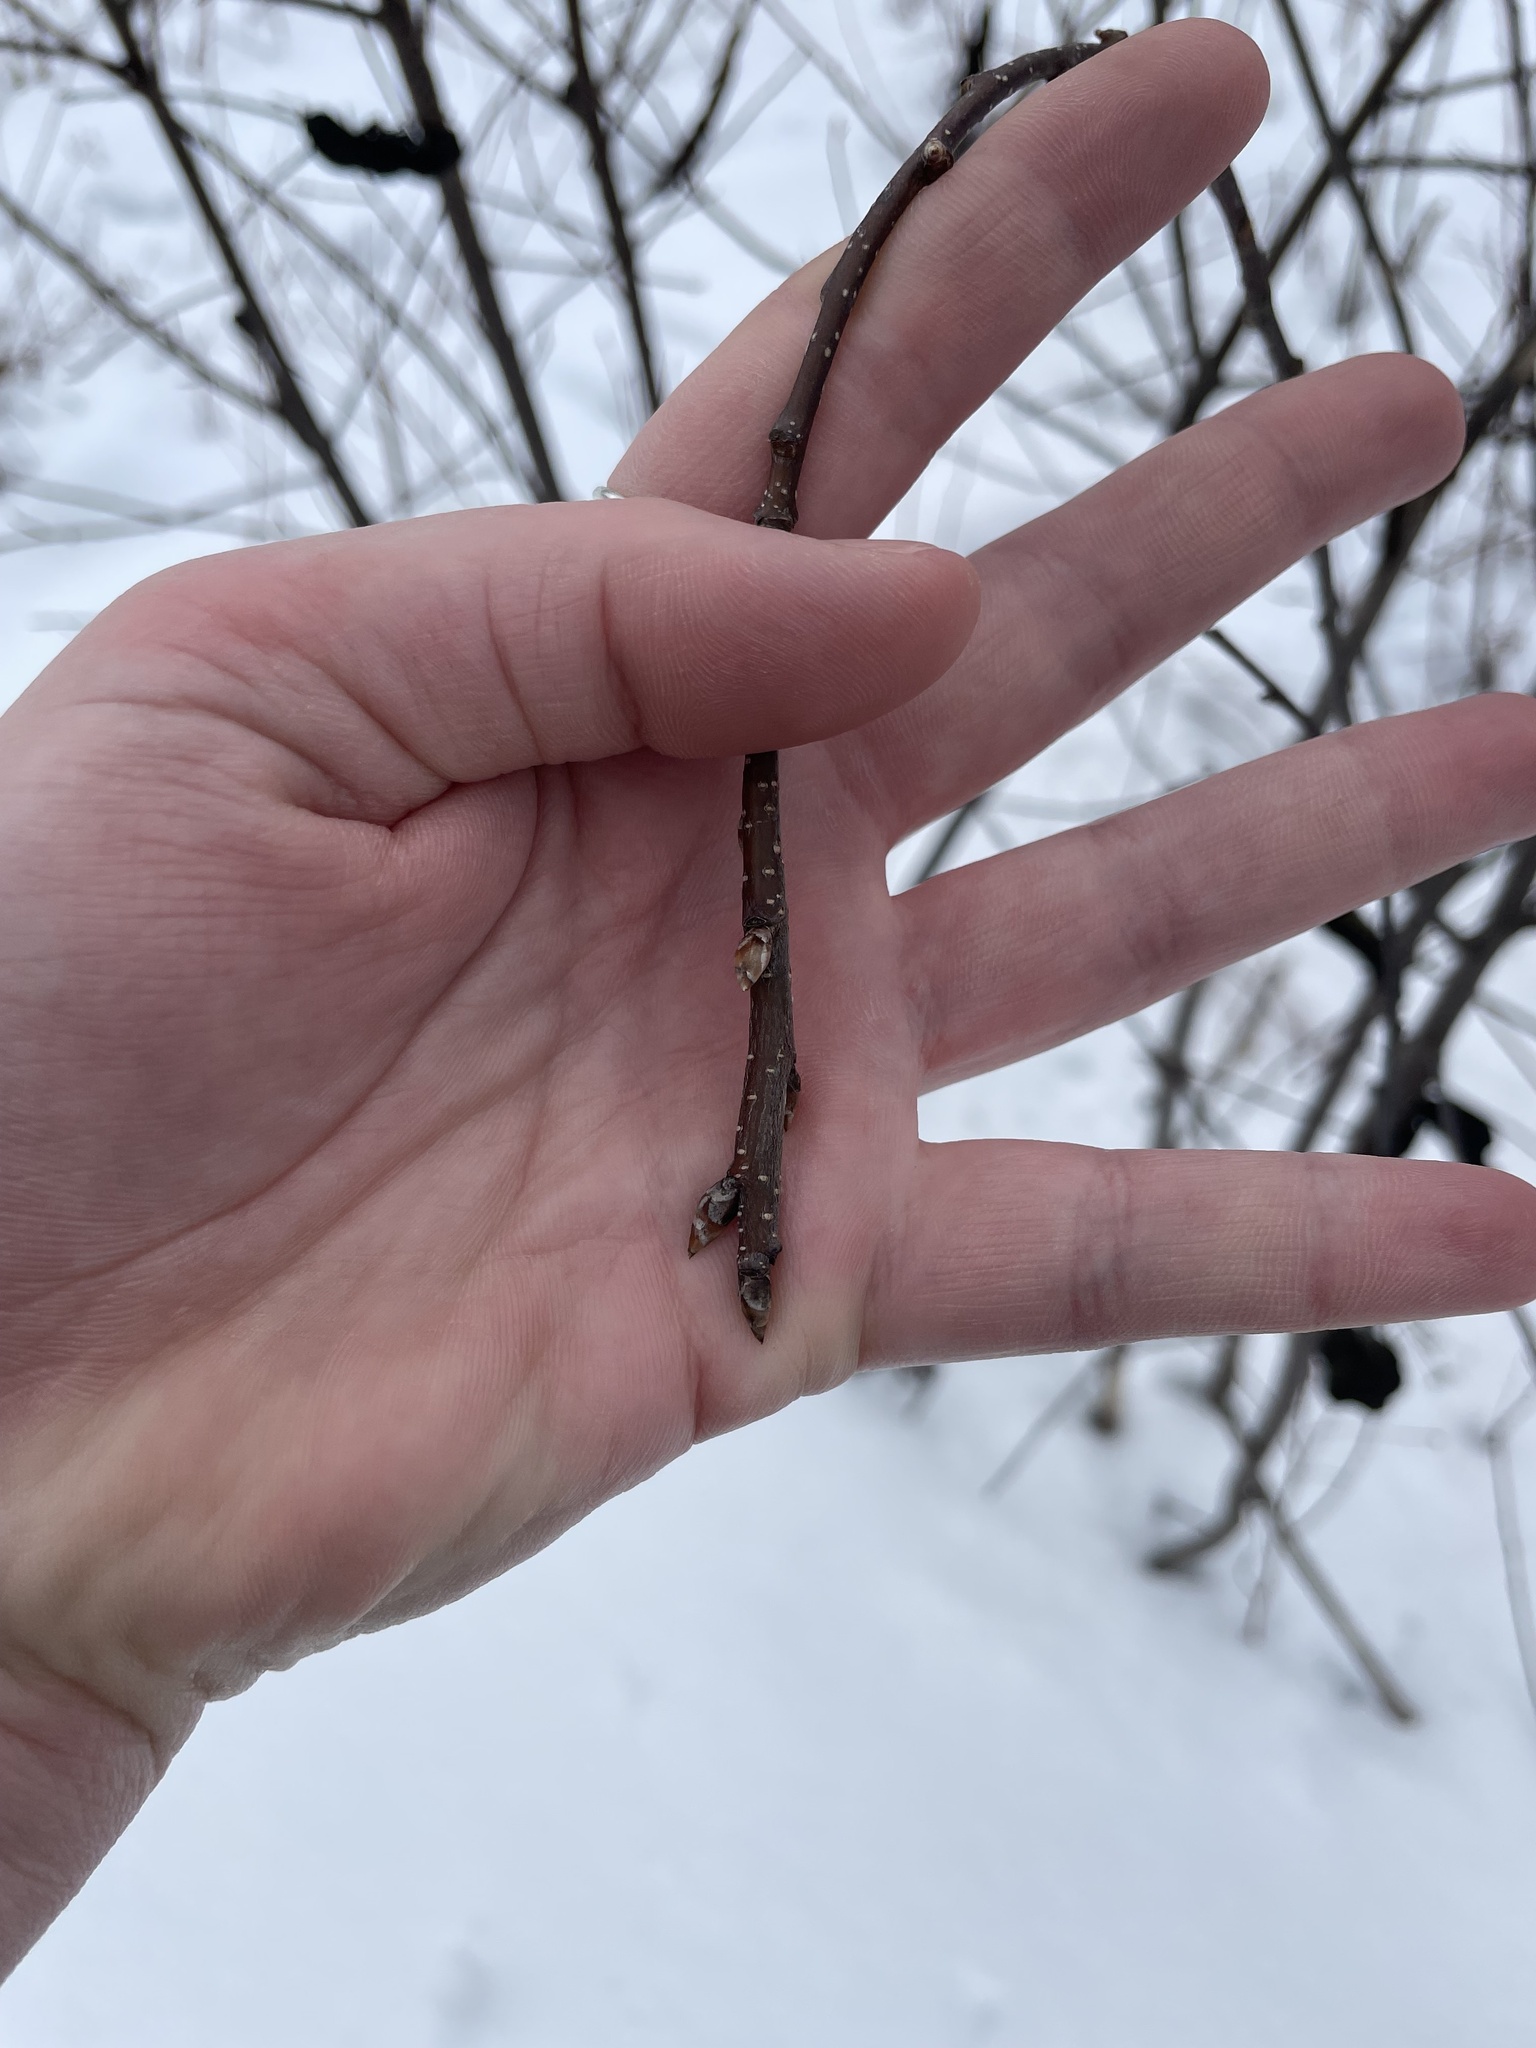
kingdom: Fungi
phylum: Ascomycota
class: Dothideomycetes
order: Venturiales
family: Venturiaceae
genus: Apiosporina
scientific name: Apiosporina morbosa
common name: Black knot
